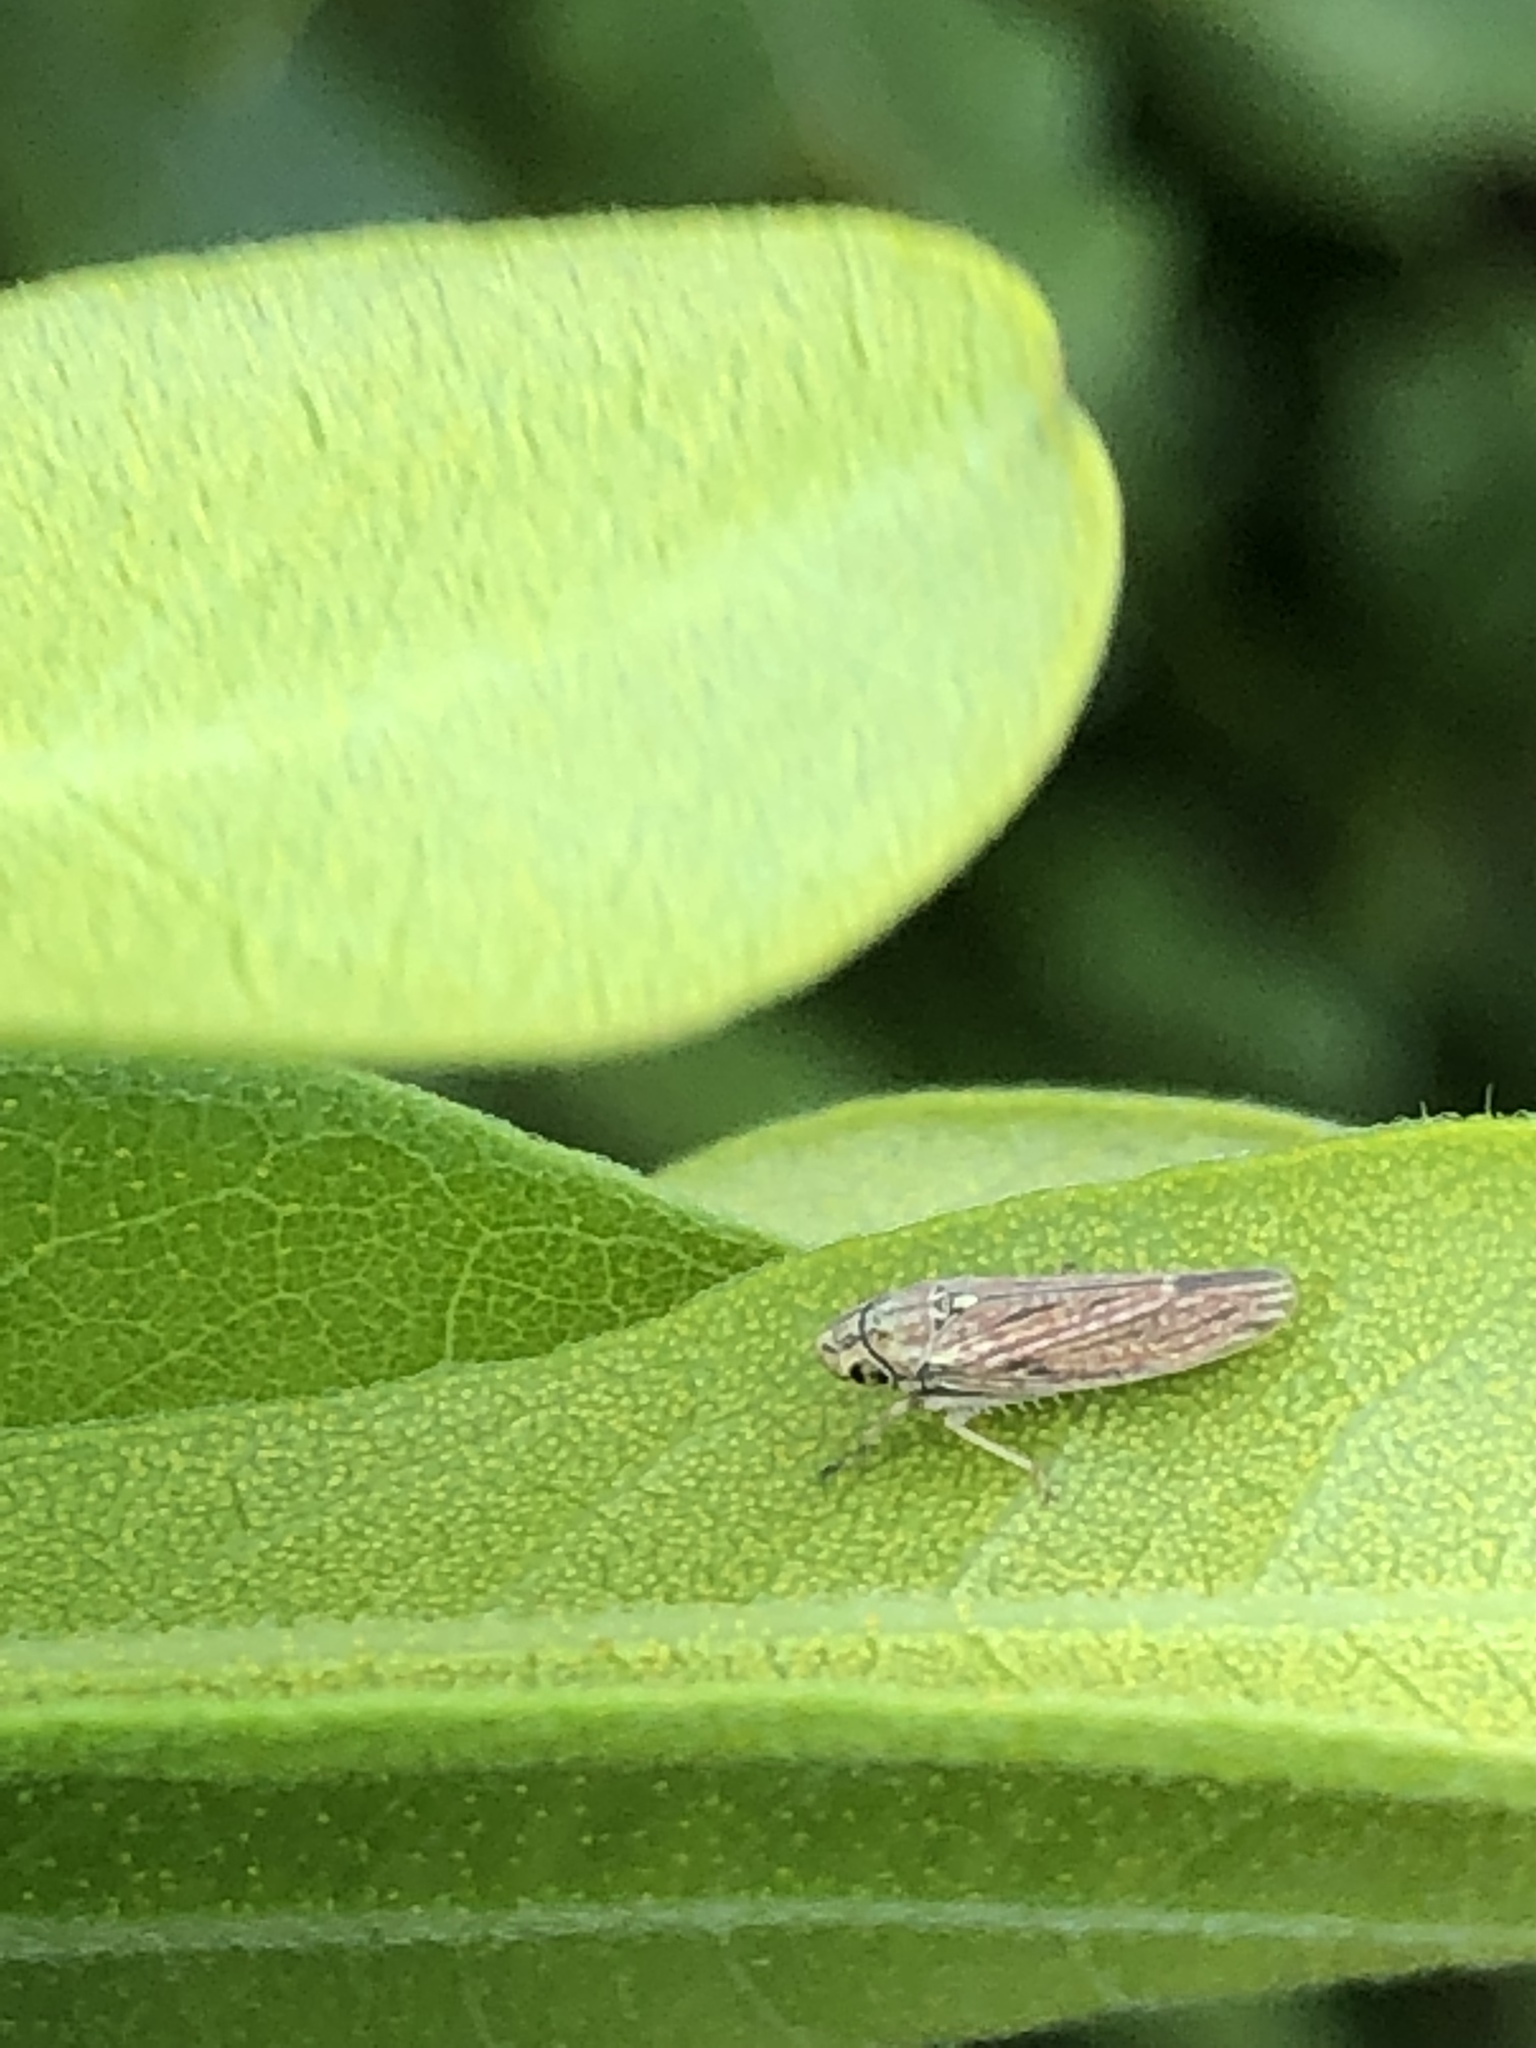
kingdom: Animalia
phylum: Arthropoda
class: Insecta
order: Hemiptera
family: Cicadellidae
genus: Neokolla
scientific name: Neokolla hieroglyphica
